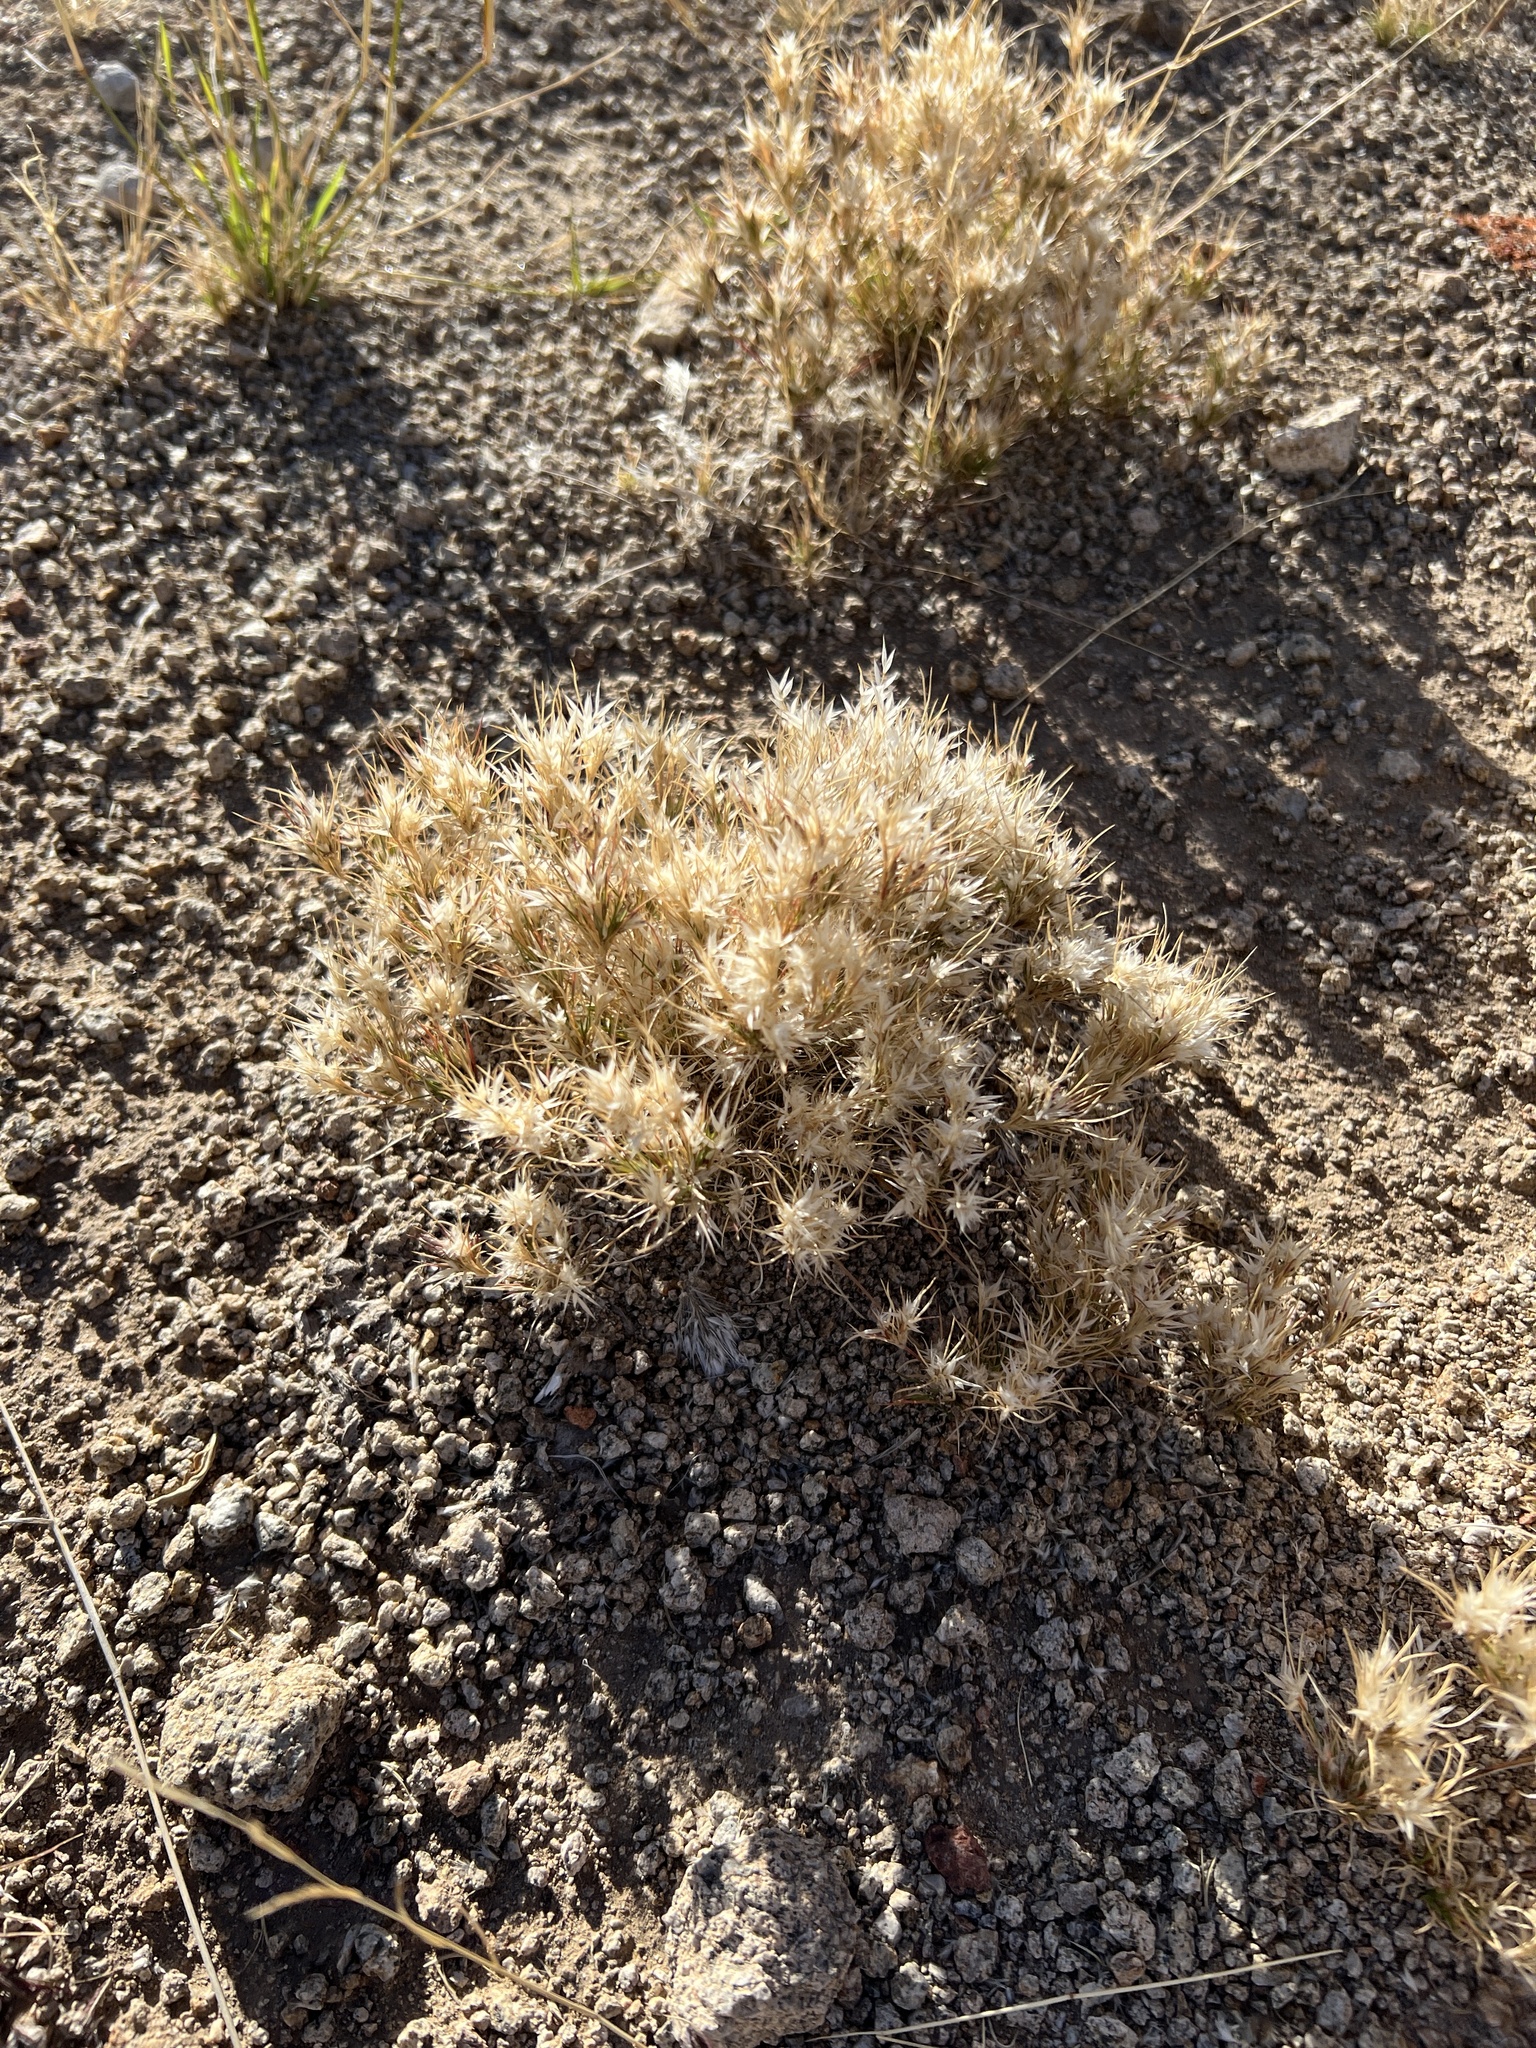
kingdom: Plantae
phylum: Tracheophyta
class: Liliopsida
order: Poales
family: Poaceae
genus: Dasyochloa
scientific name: Dasyochloa pulchella
